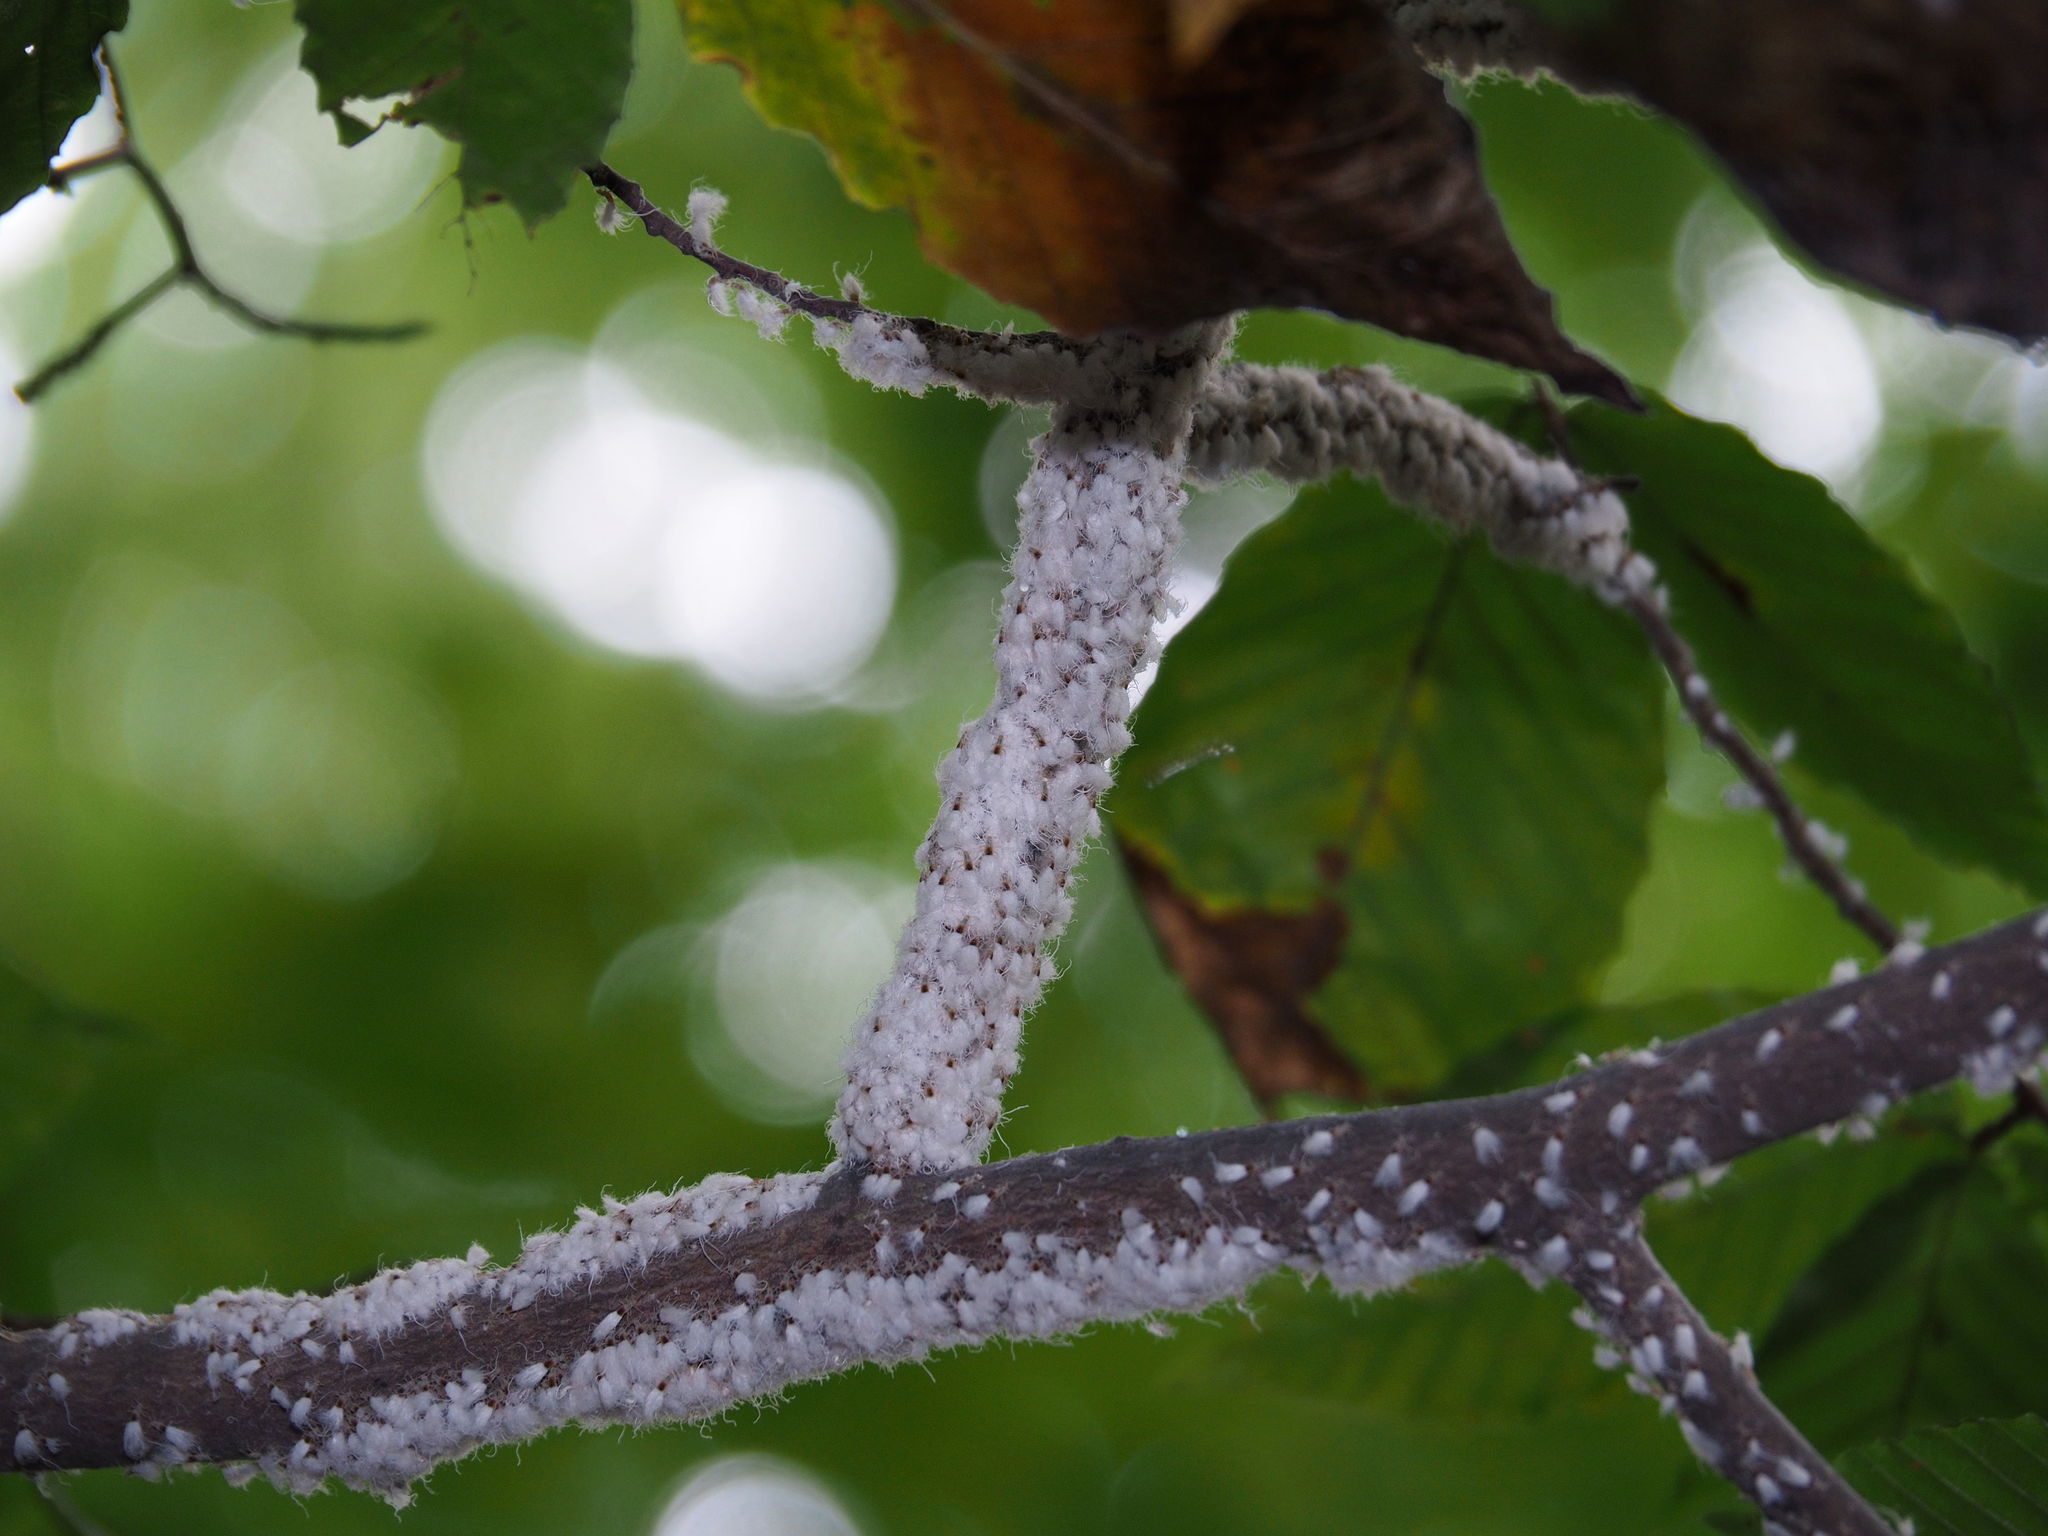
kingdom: Animalia
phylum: Arthropoda
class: Insecta
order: Hemiptera
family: Aphididae
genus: Grylloprociphilus
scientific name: Grylloprociphilus imbricator
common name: Beech blight aphid
